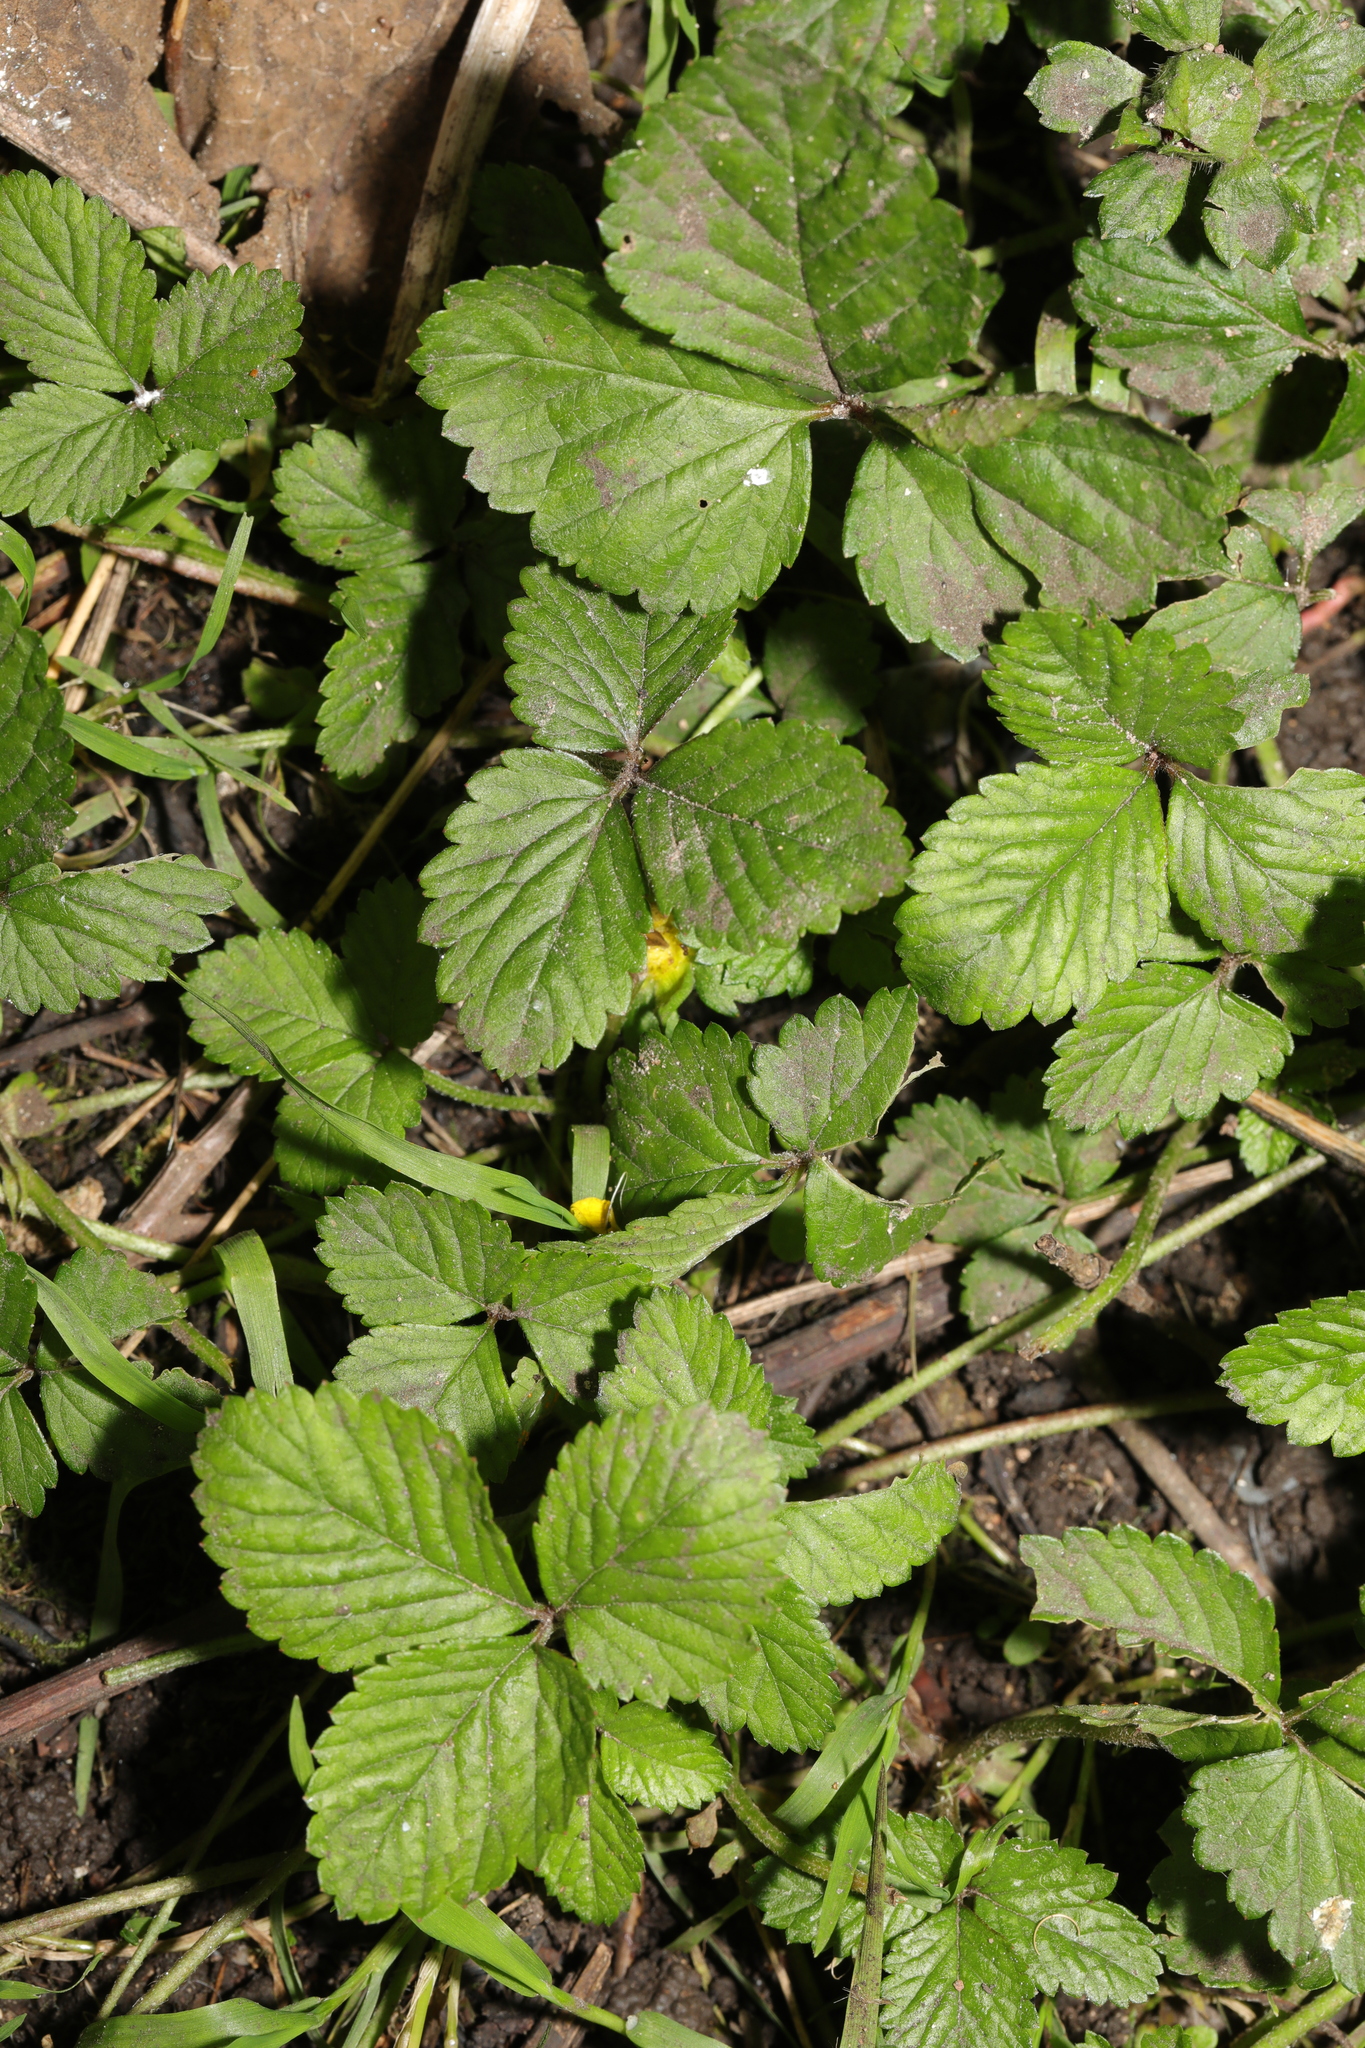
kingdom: Plantae
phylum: Tracheophyta
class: Magnoliopsida
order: Rosales
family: Rosaceae
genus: Potentilla
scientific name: Potentilla indica
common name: Yellow-flowered strawberry
